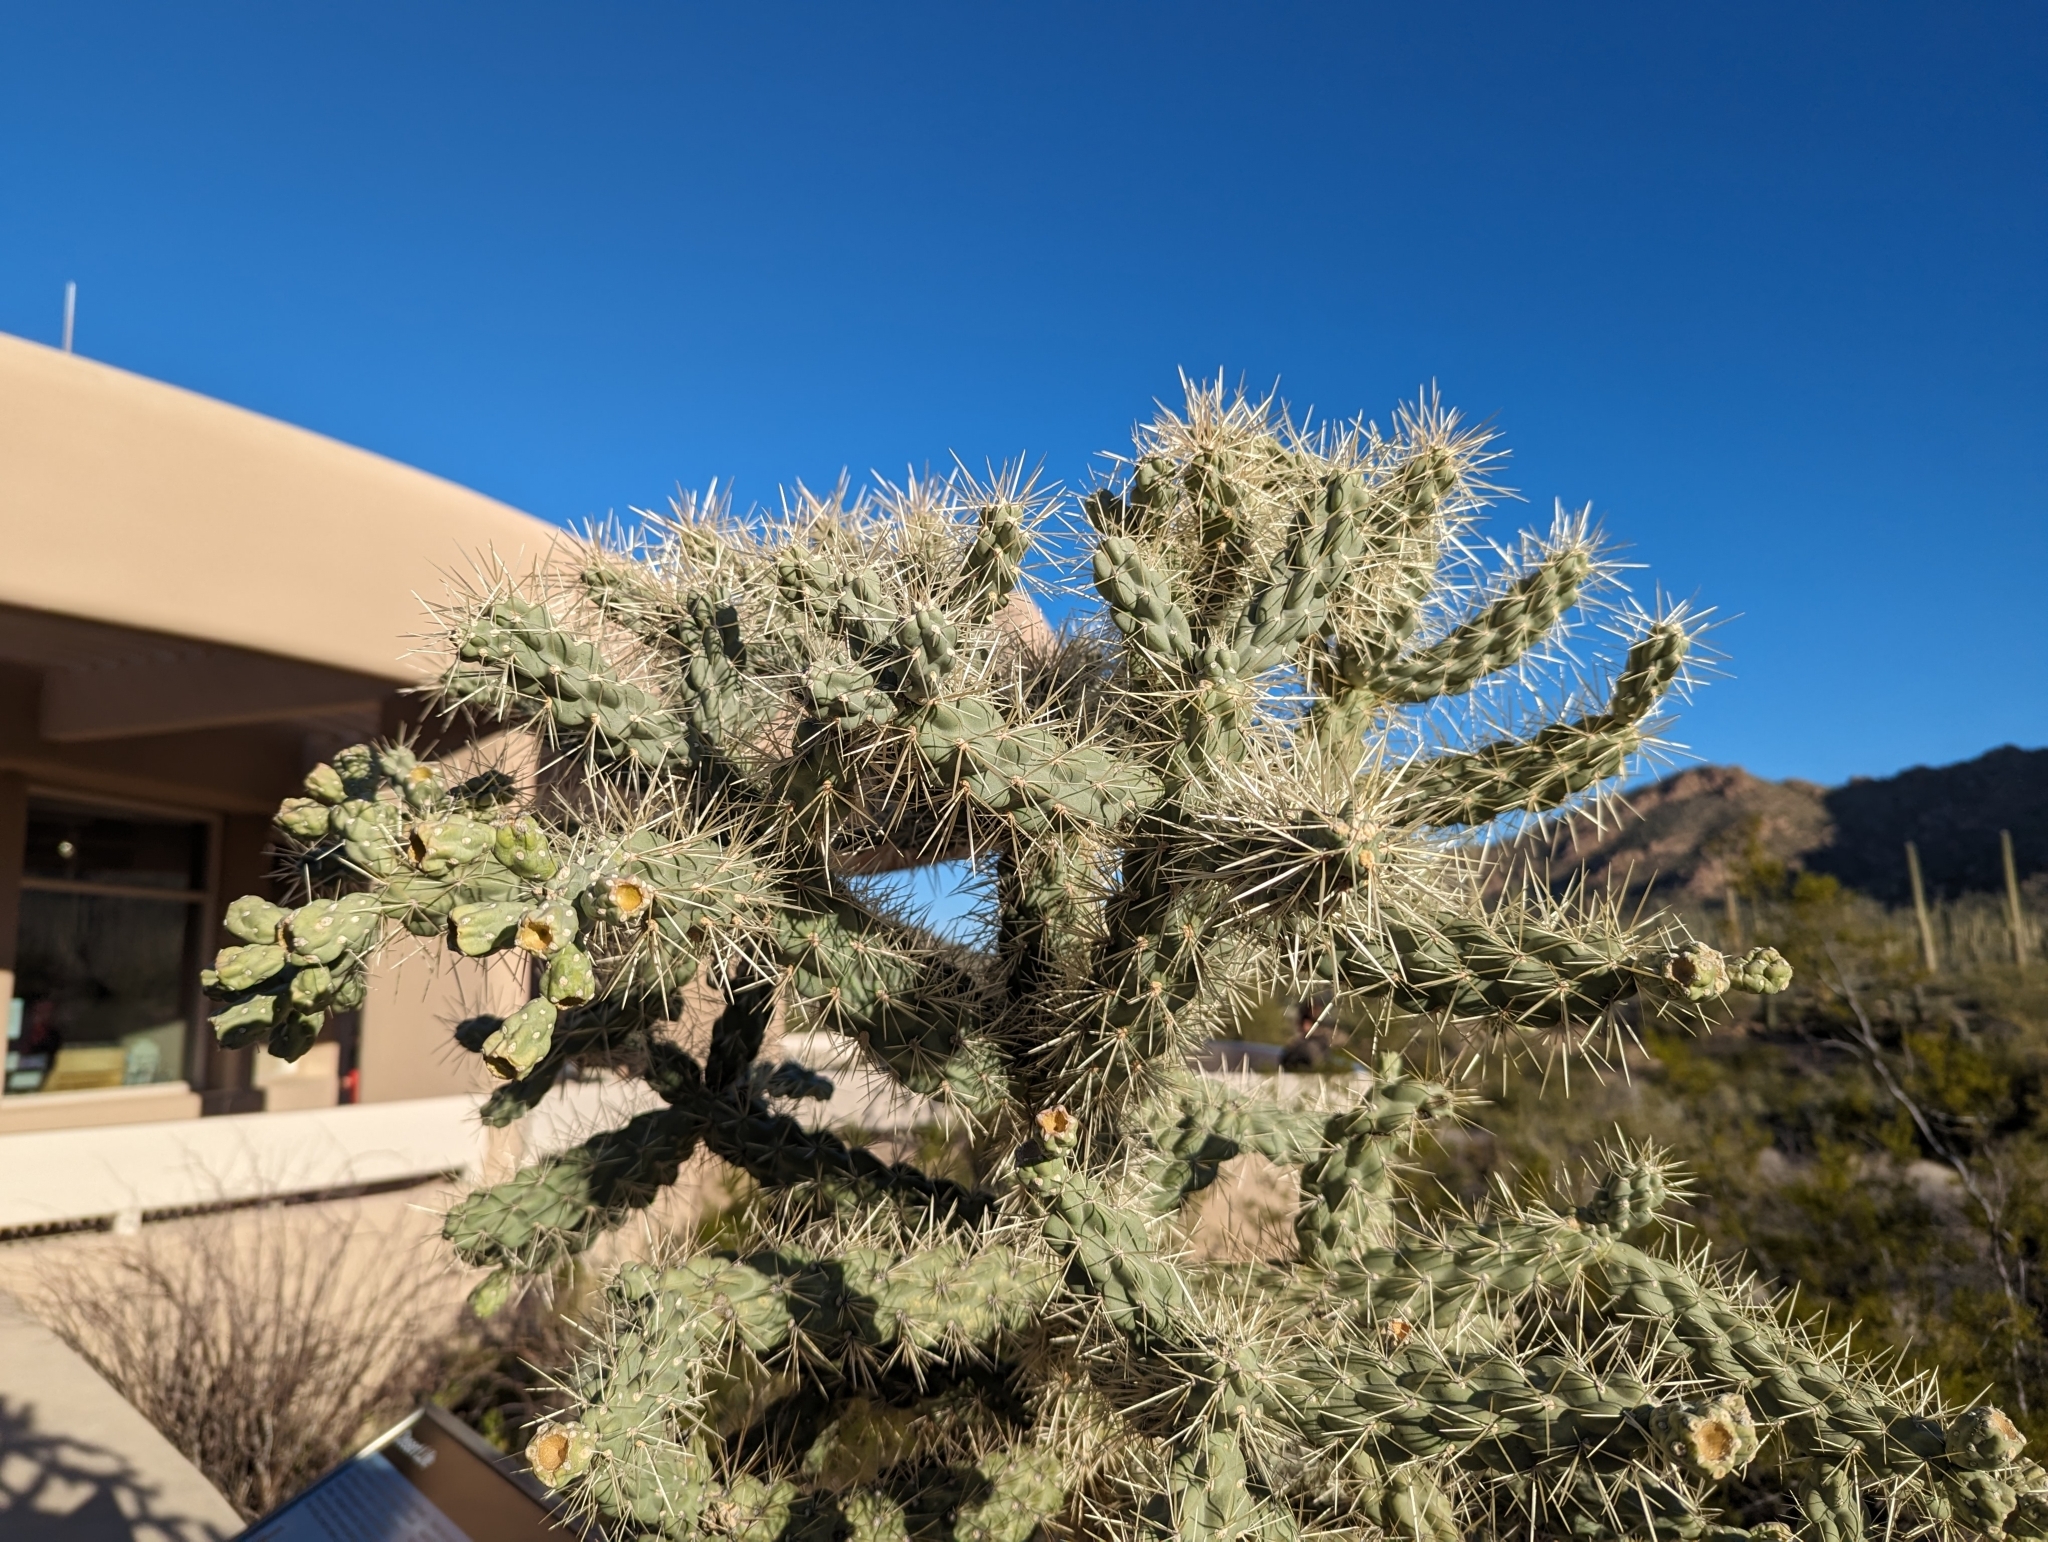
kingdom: Plantae
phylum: Tracheophyta
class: Magnoliopsida
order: Caryophyllales
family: Cactaceae
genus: Cylindropuntia
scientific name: Cylindropuntia fulgida
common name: Jumping cholla
